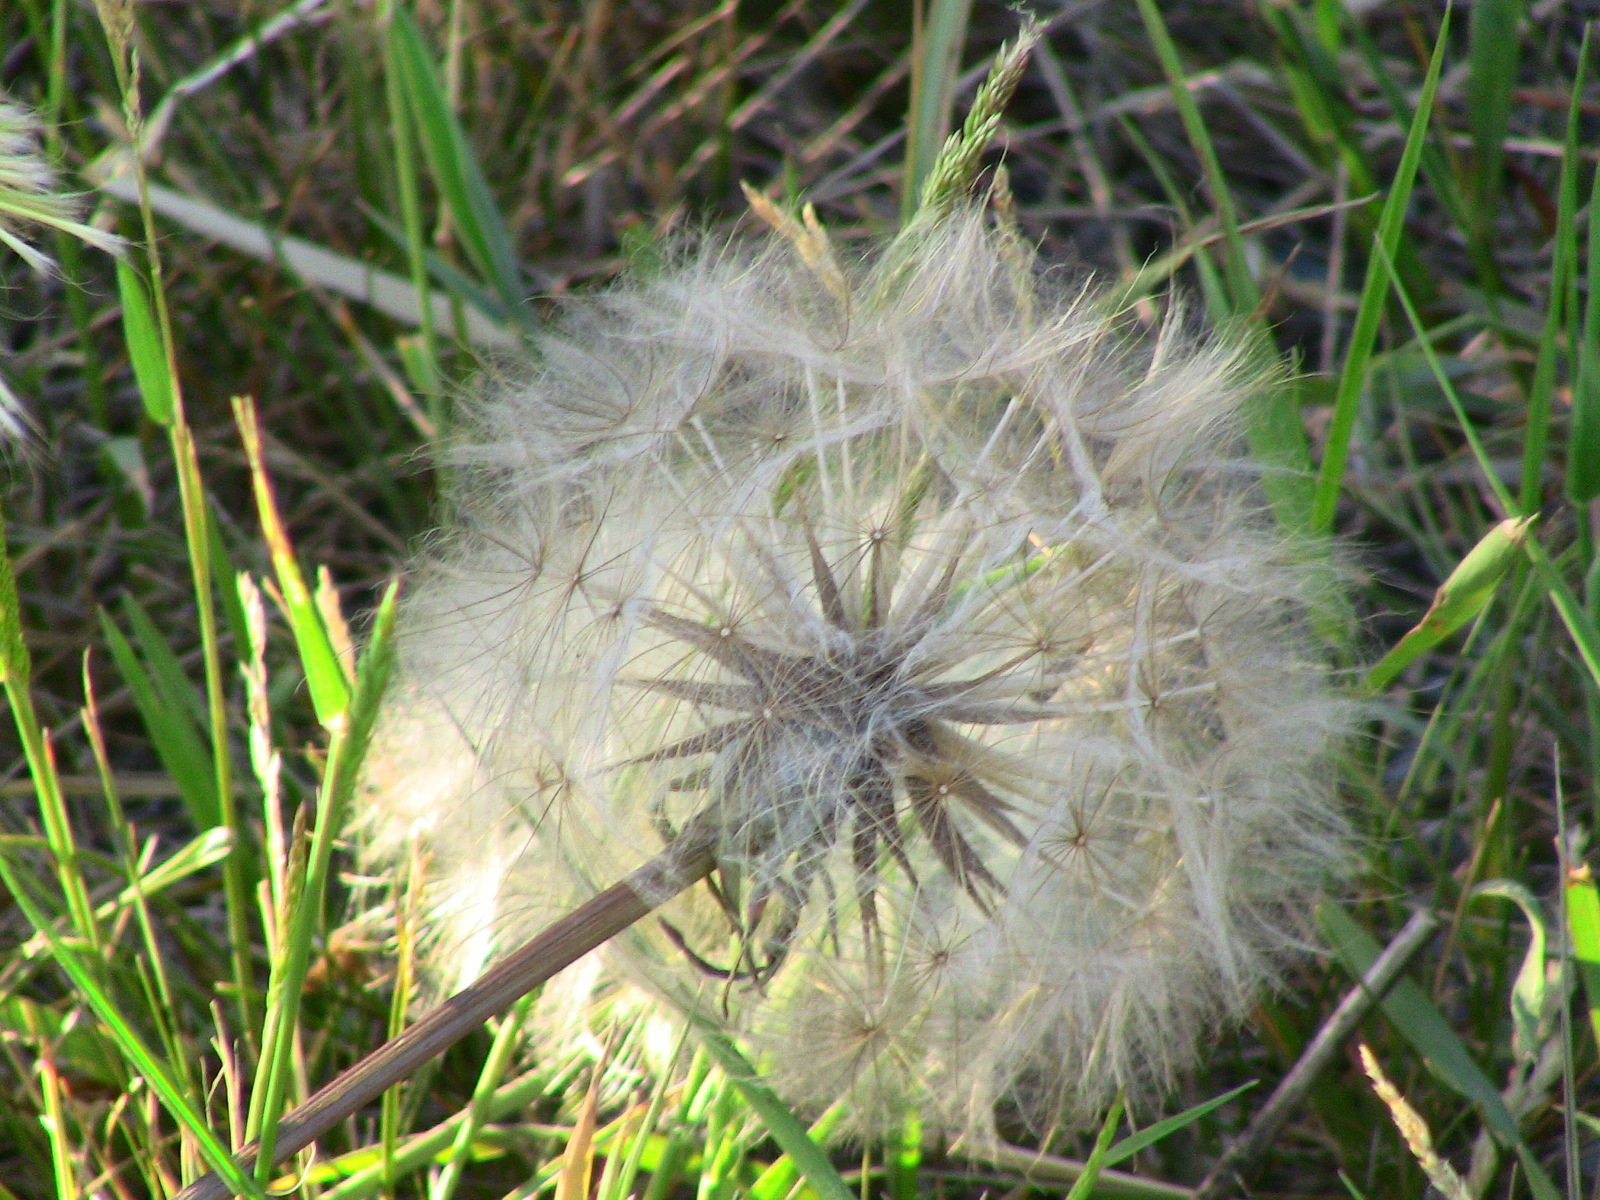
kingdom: Plantae
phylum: Tracheophyta
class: Magnoliopsida
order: Asterales
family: Asteraceae
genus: Tragopogon
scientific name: Tragopogon pratensis
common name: Goat's-beard
